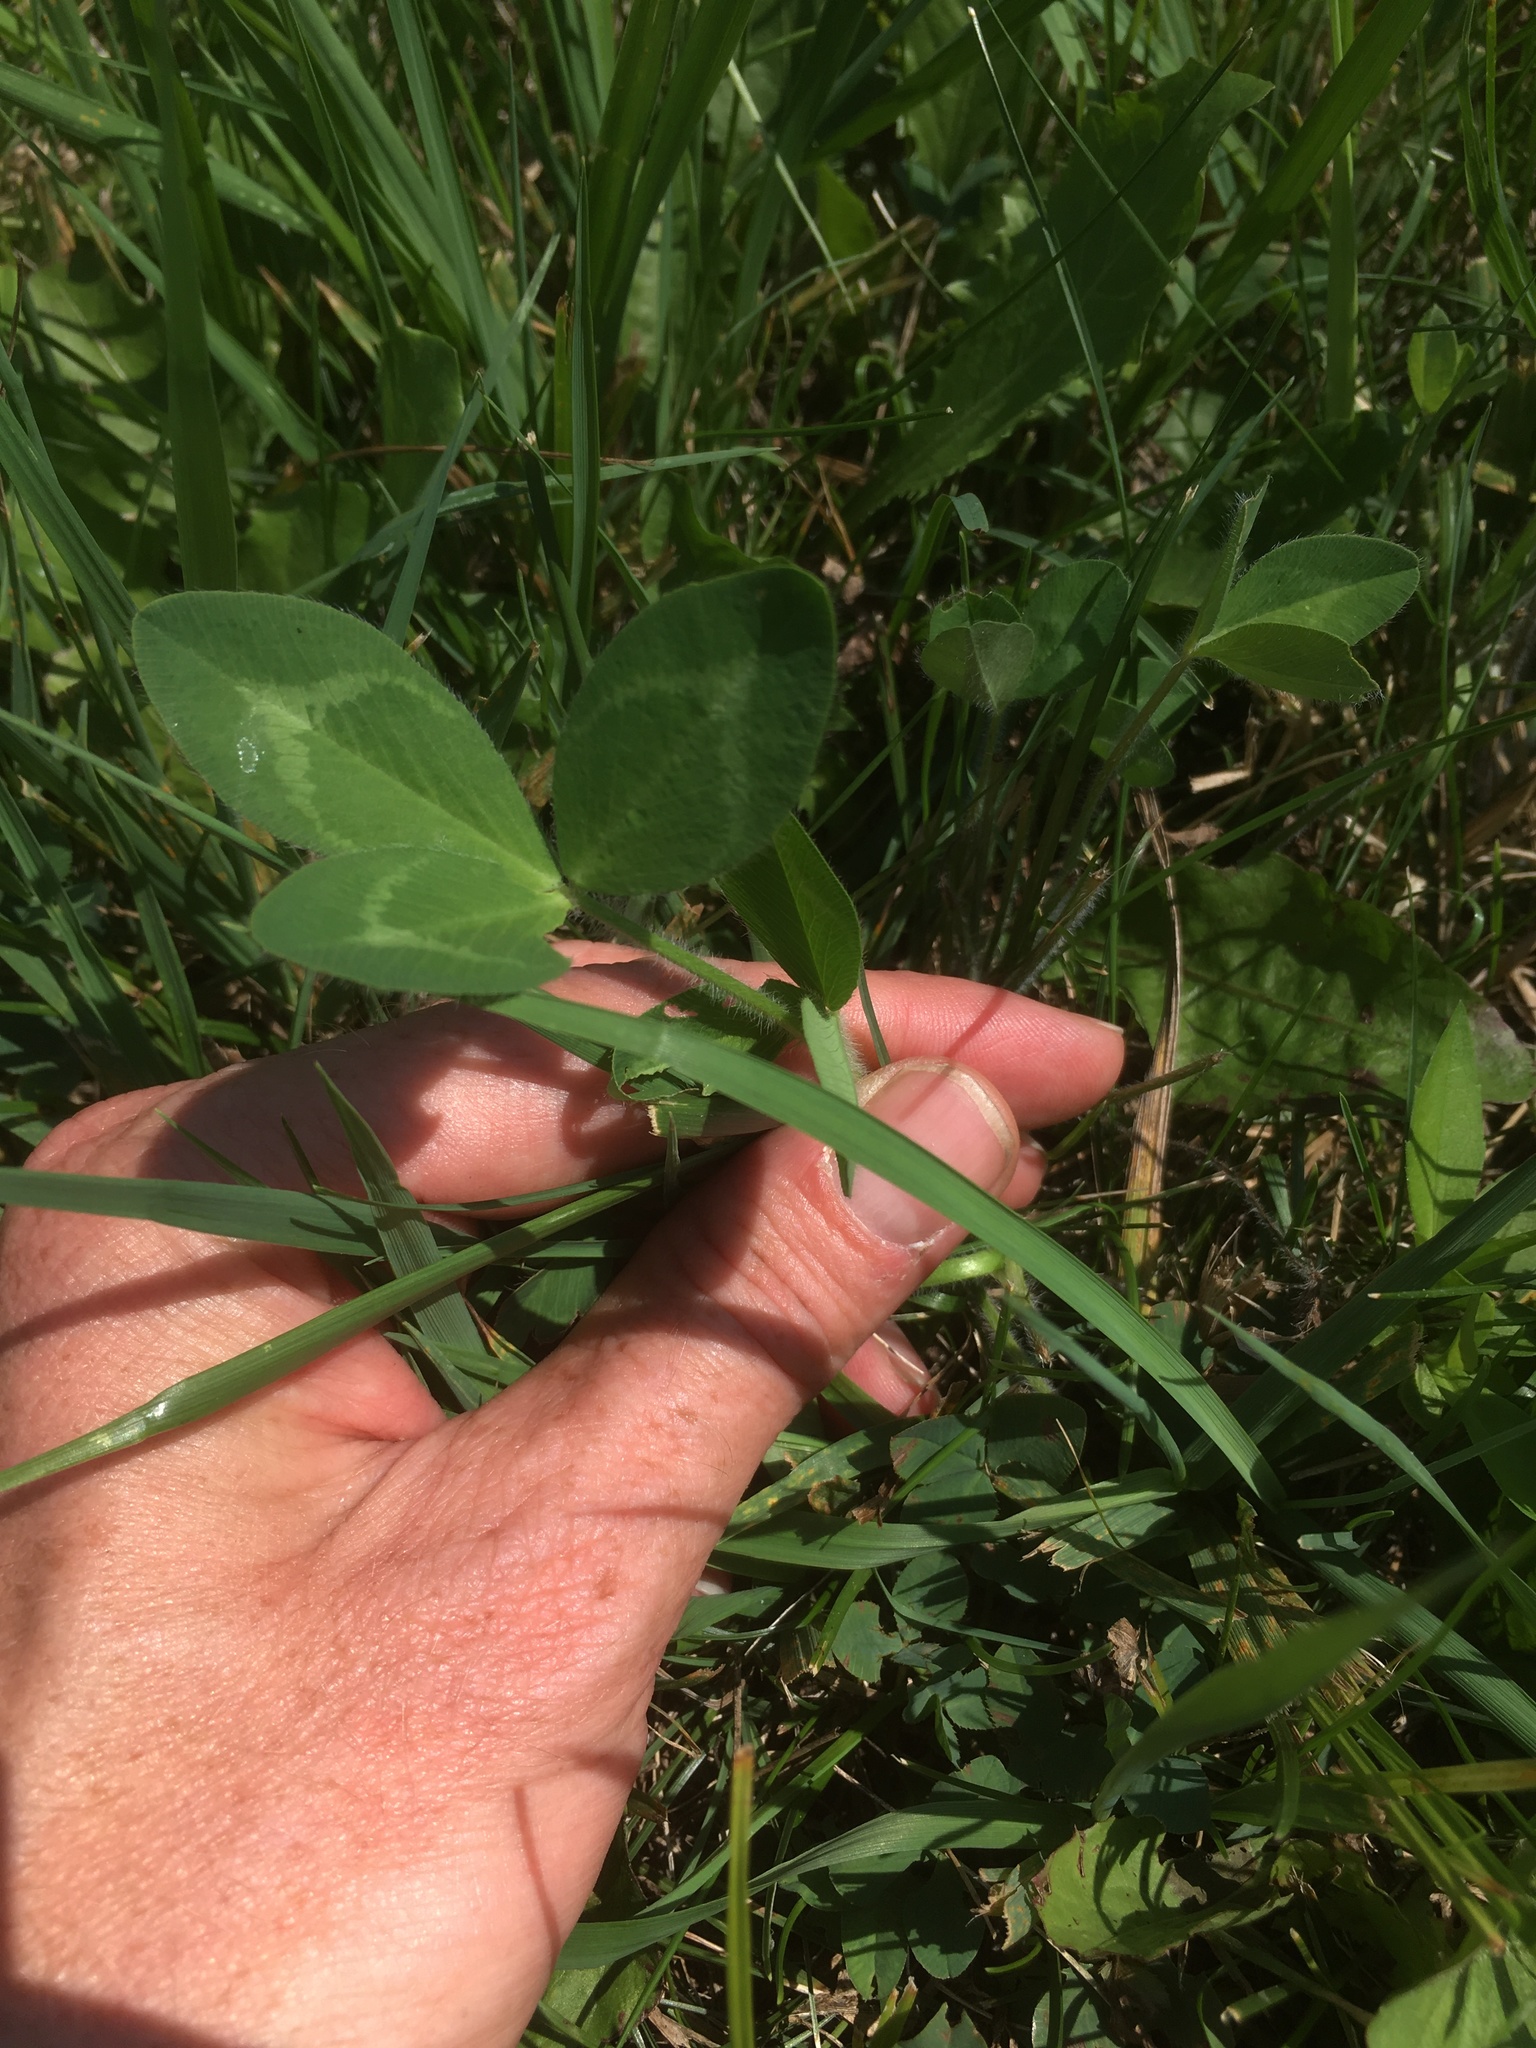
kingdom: Plantae
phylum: Tracheophyta
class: Magnoliopsida
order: Fabales
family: Fabaceae
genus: Trifolium
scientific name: Trifolium pratense
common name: Red clover
